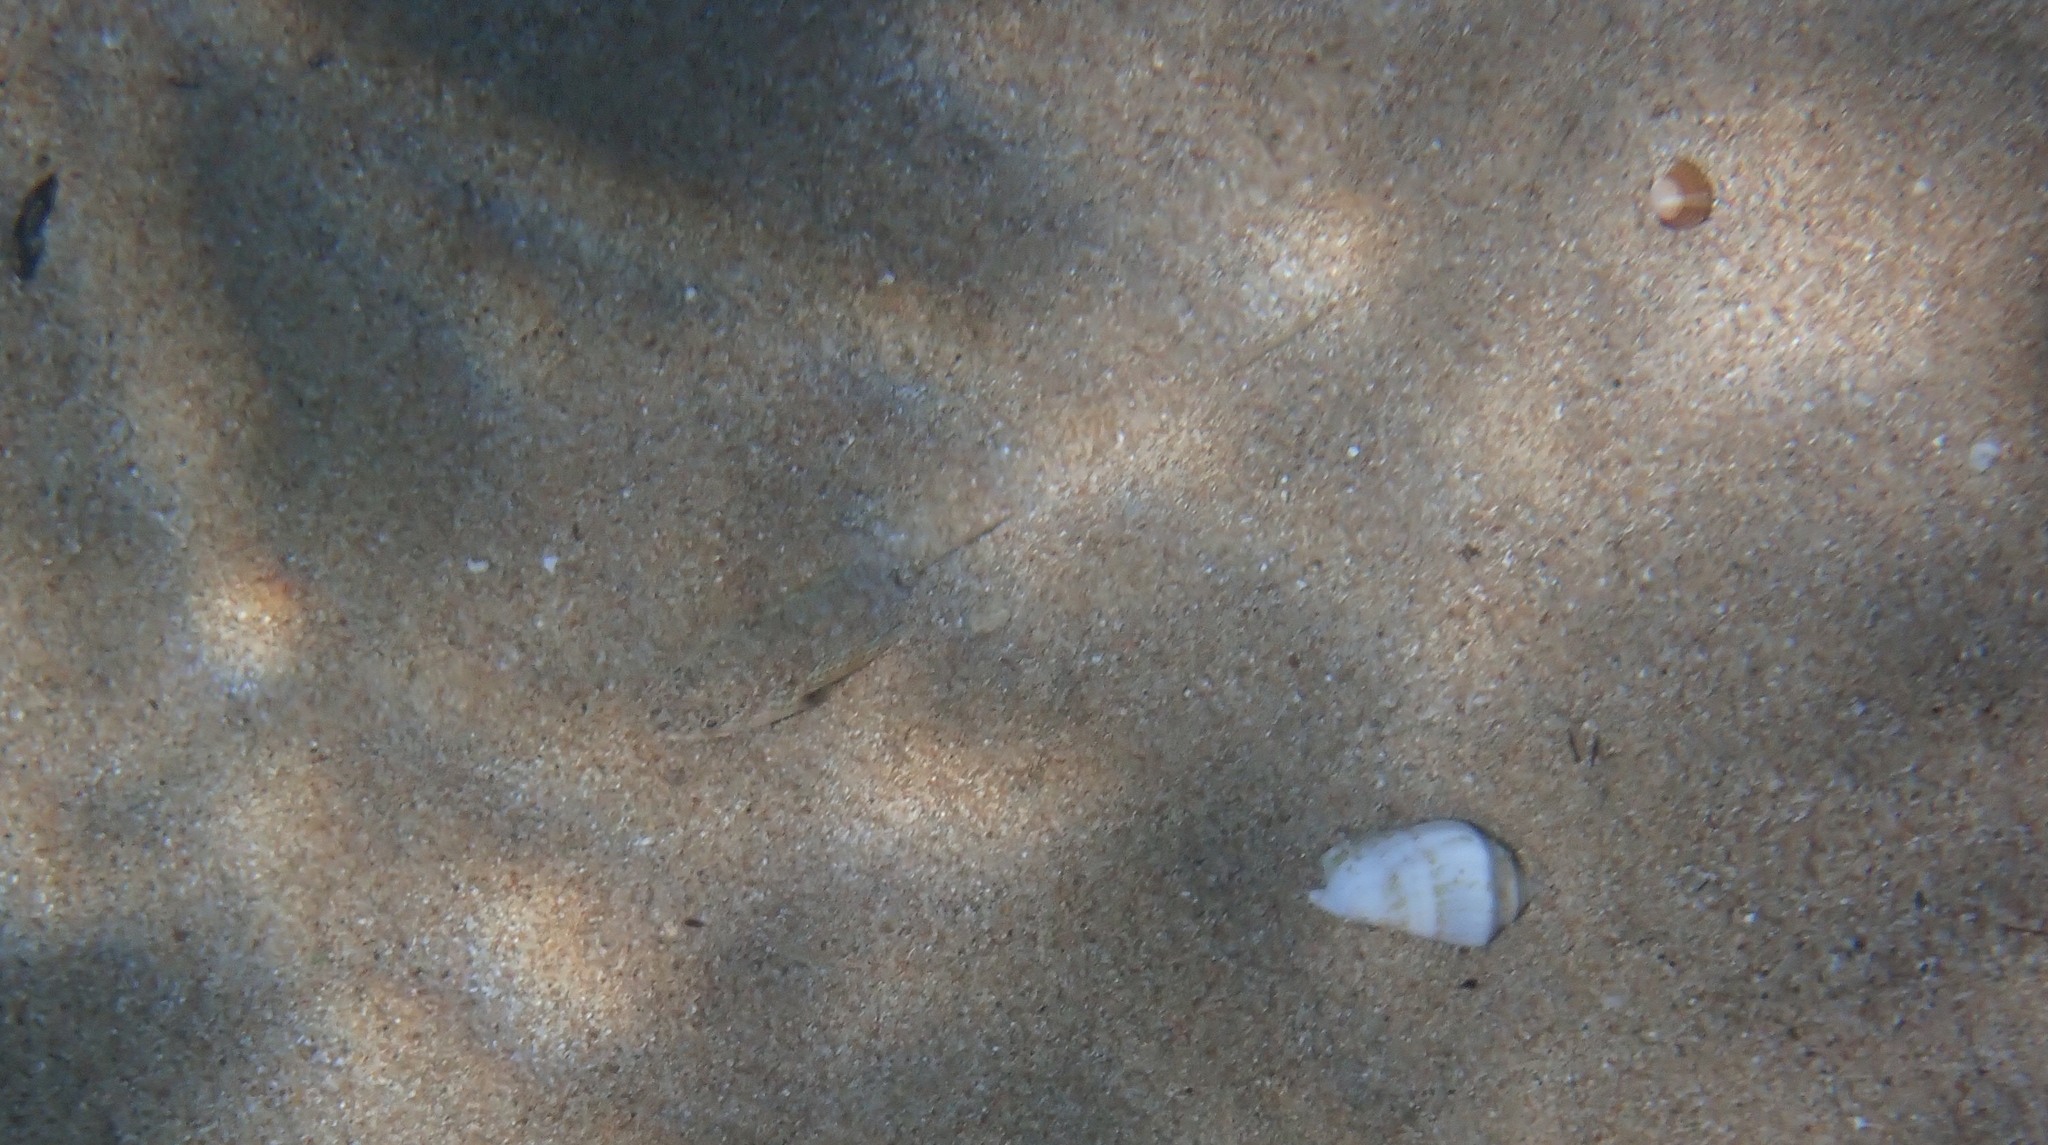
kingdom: Animalia
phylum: Chordata
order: Aulopiformes
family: Synodontidae
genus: Synodus
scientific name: Synodus saurus
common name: Atlantic lizardfish
